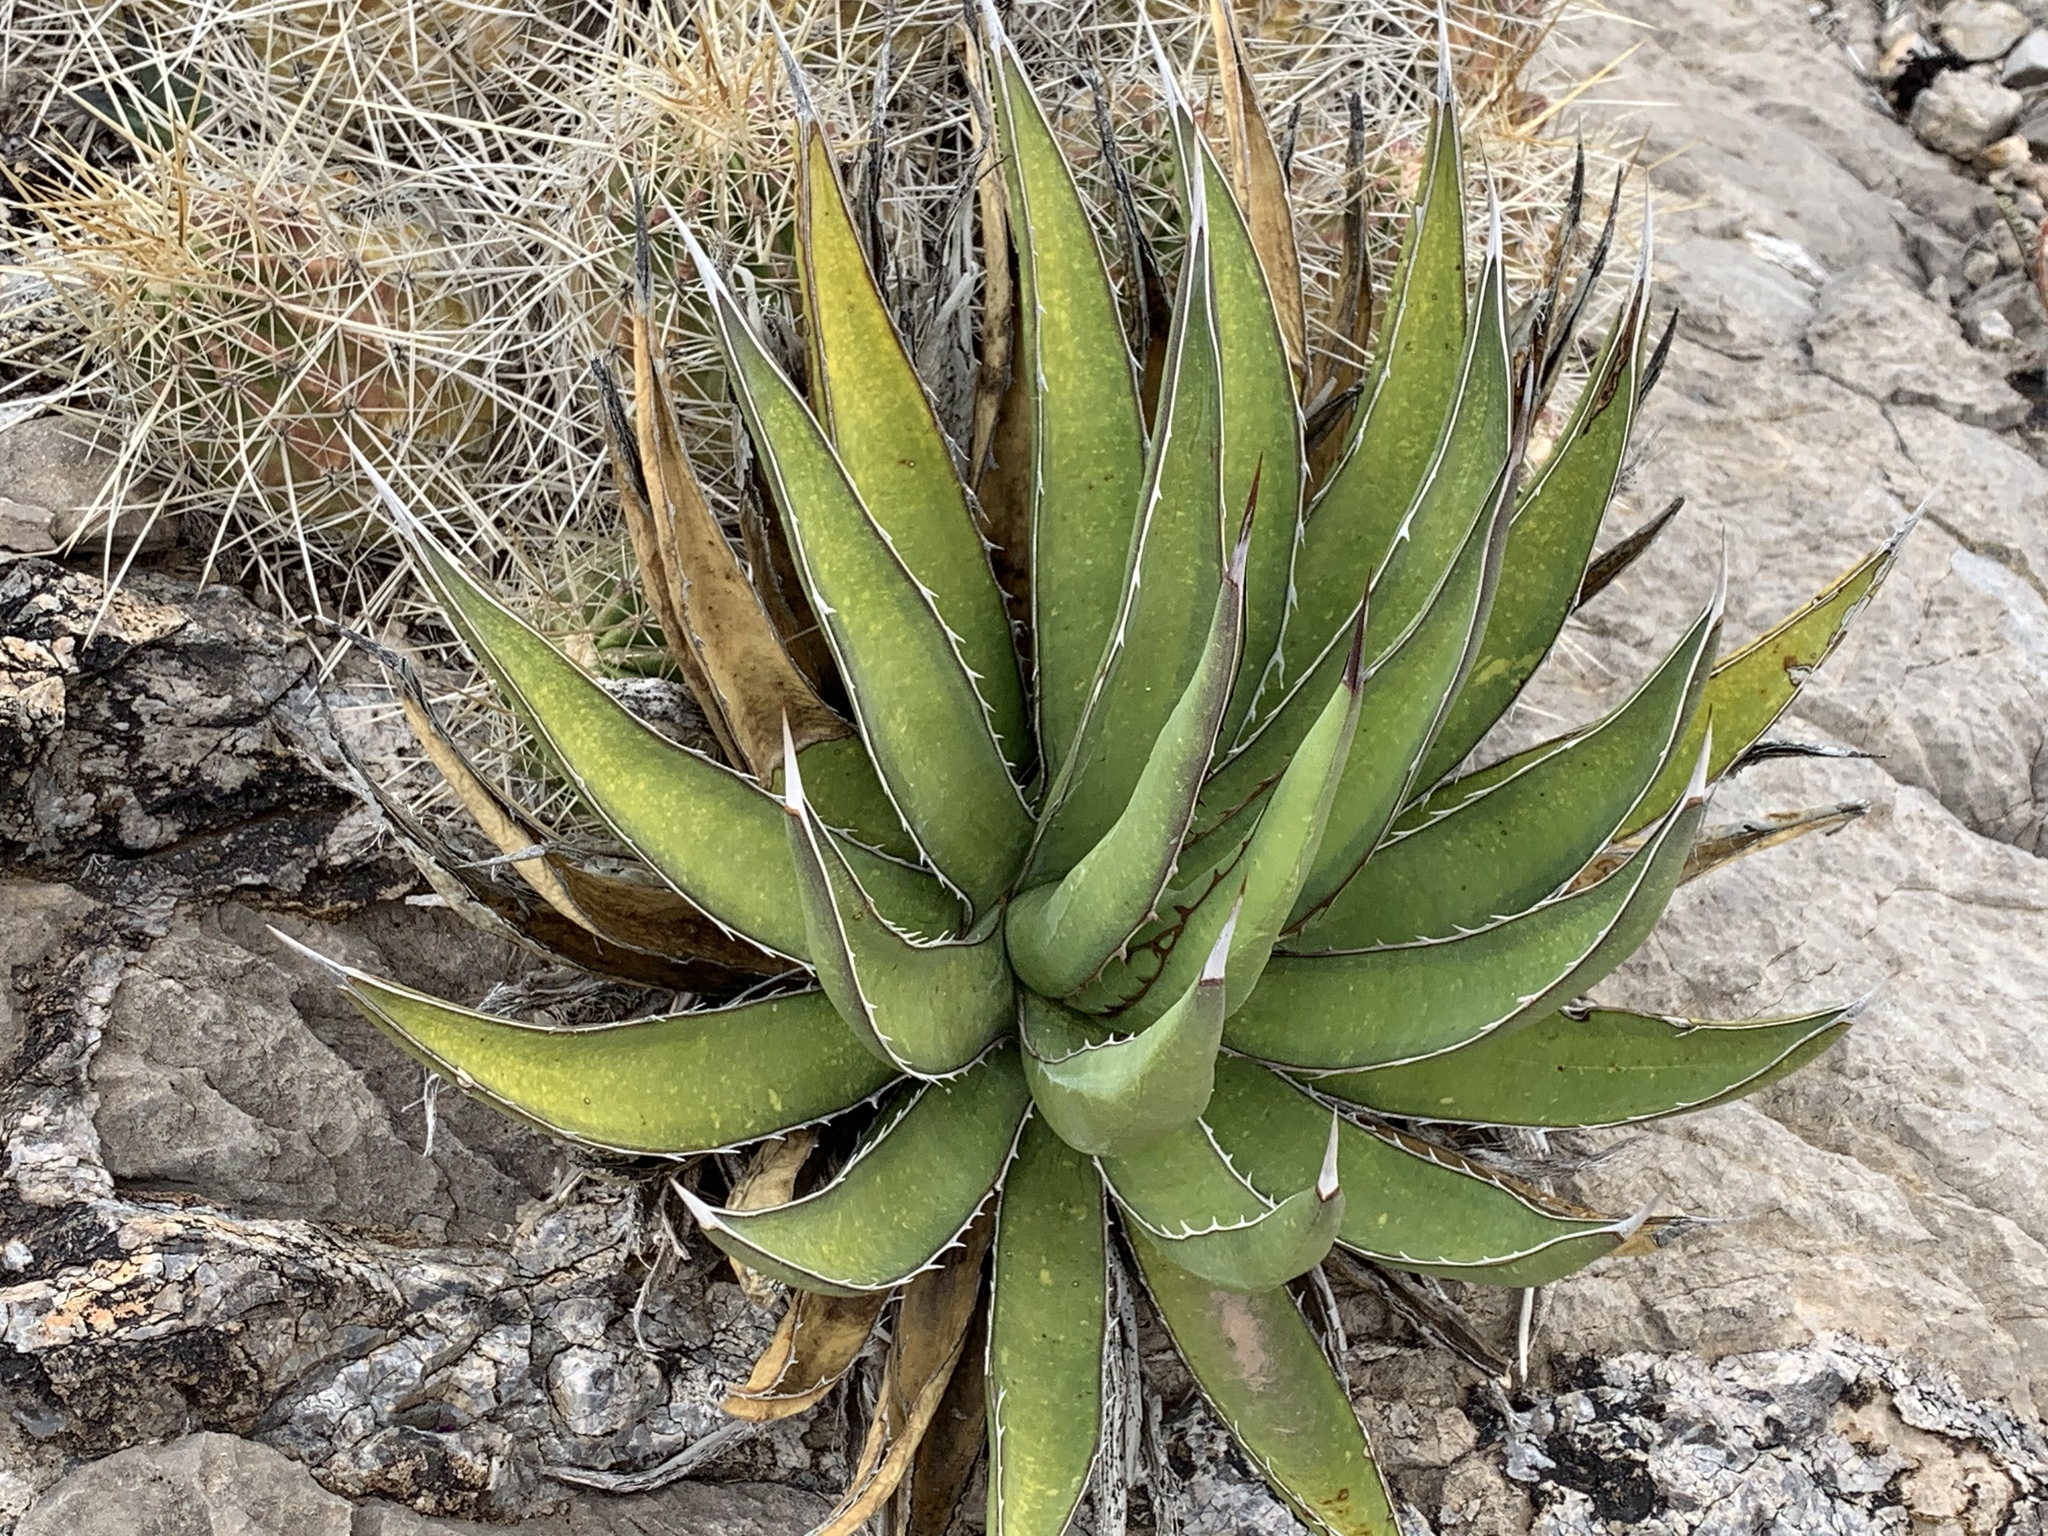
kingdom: Plantae
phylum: Tracheophyta
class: Liliopsida
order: Asparagales
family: Asparagaceae
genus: Agave
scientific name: Agave lechuguilla
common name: Lecheguilla agave
